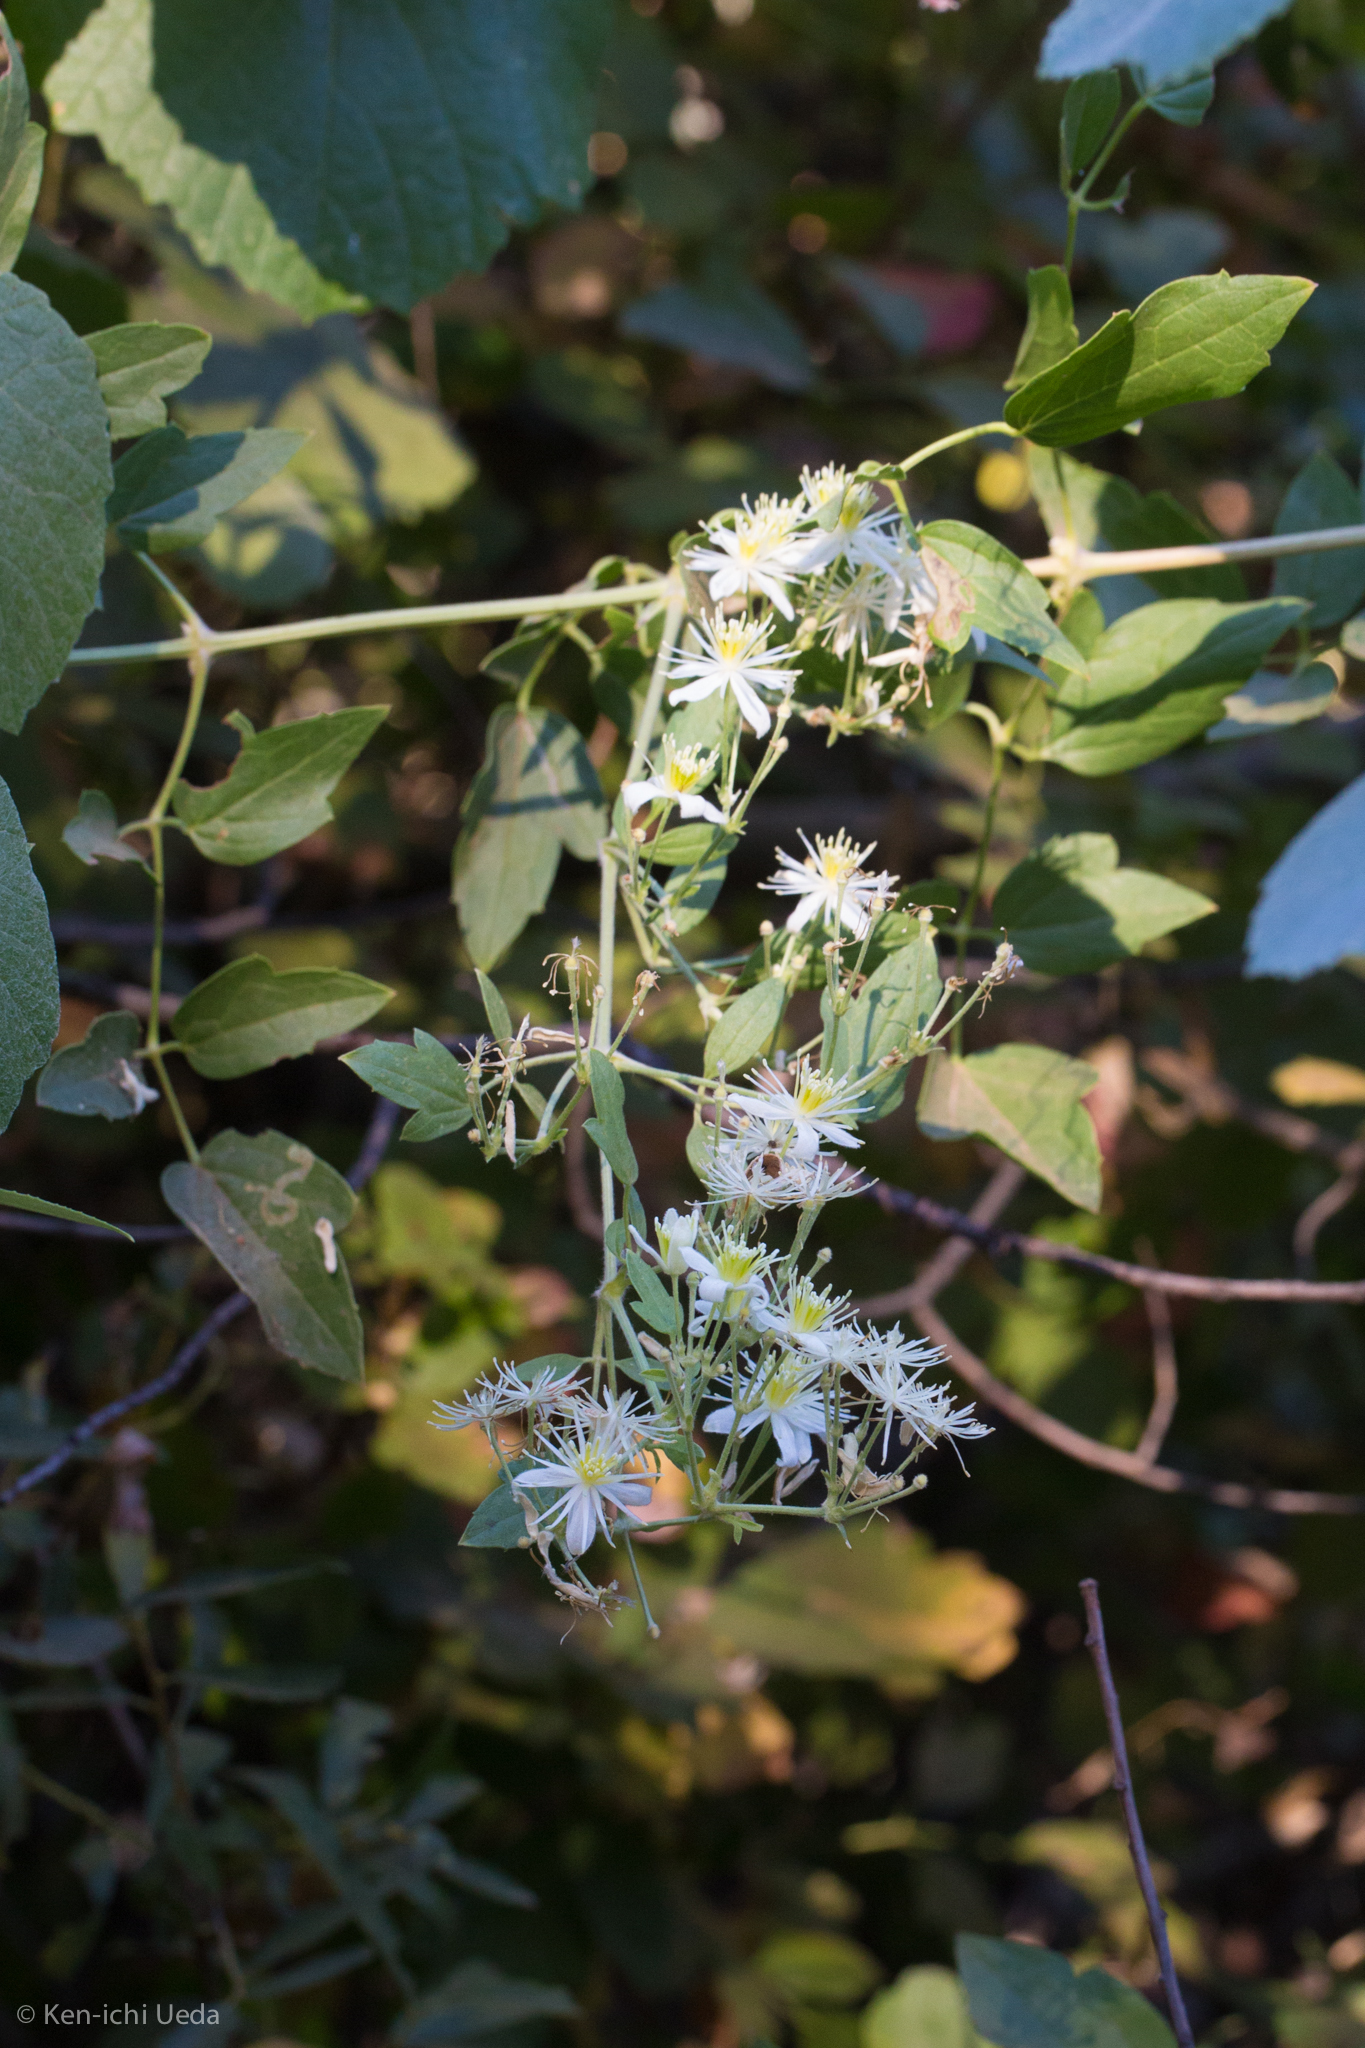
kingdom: Plantae
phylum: Tracheophyta
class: Magnoliopsida
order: Ranunculales
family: Ranunculaceae
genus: Clematis
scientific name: Clematis ligusticifolia
